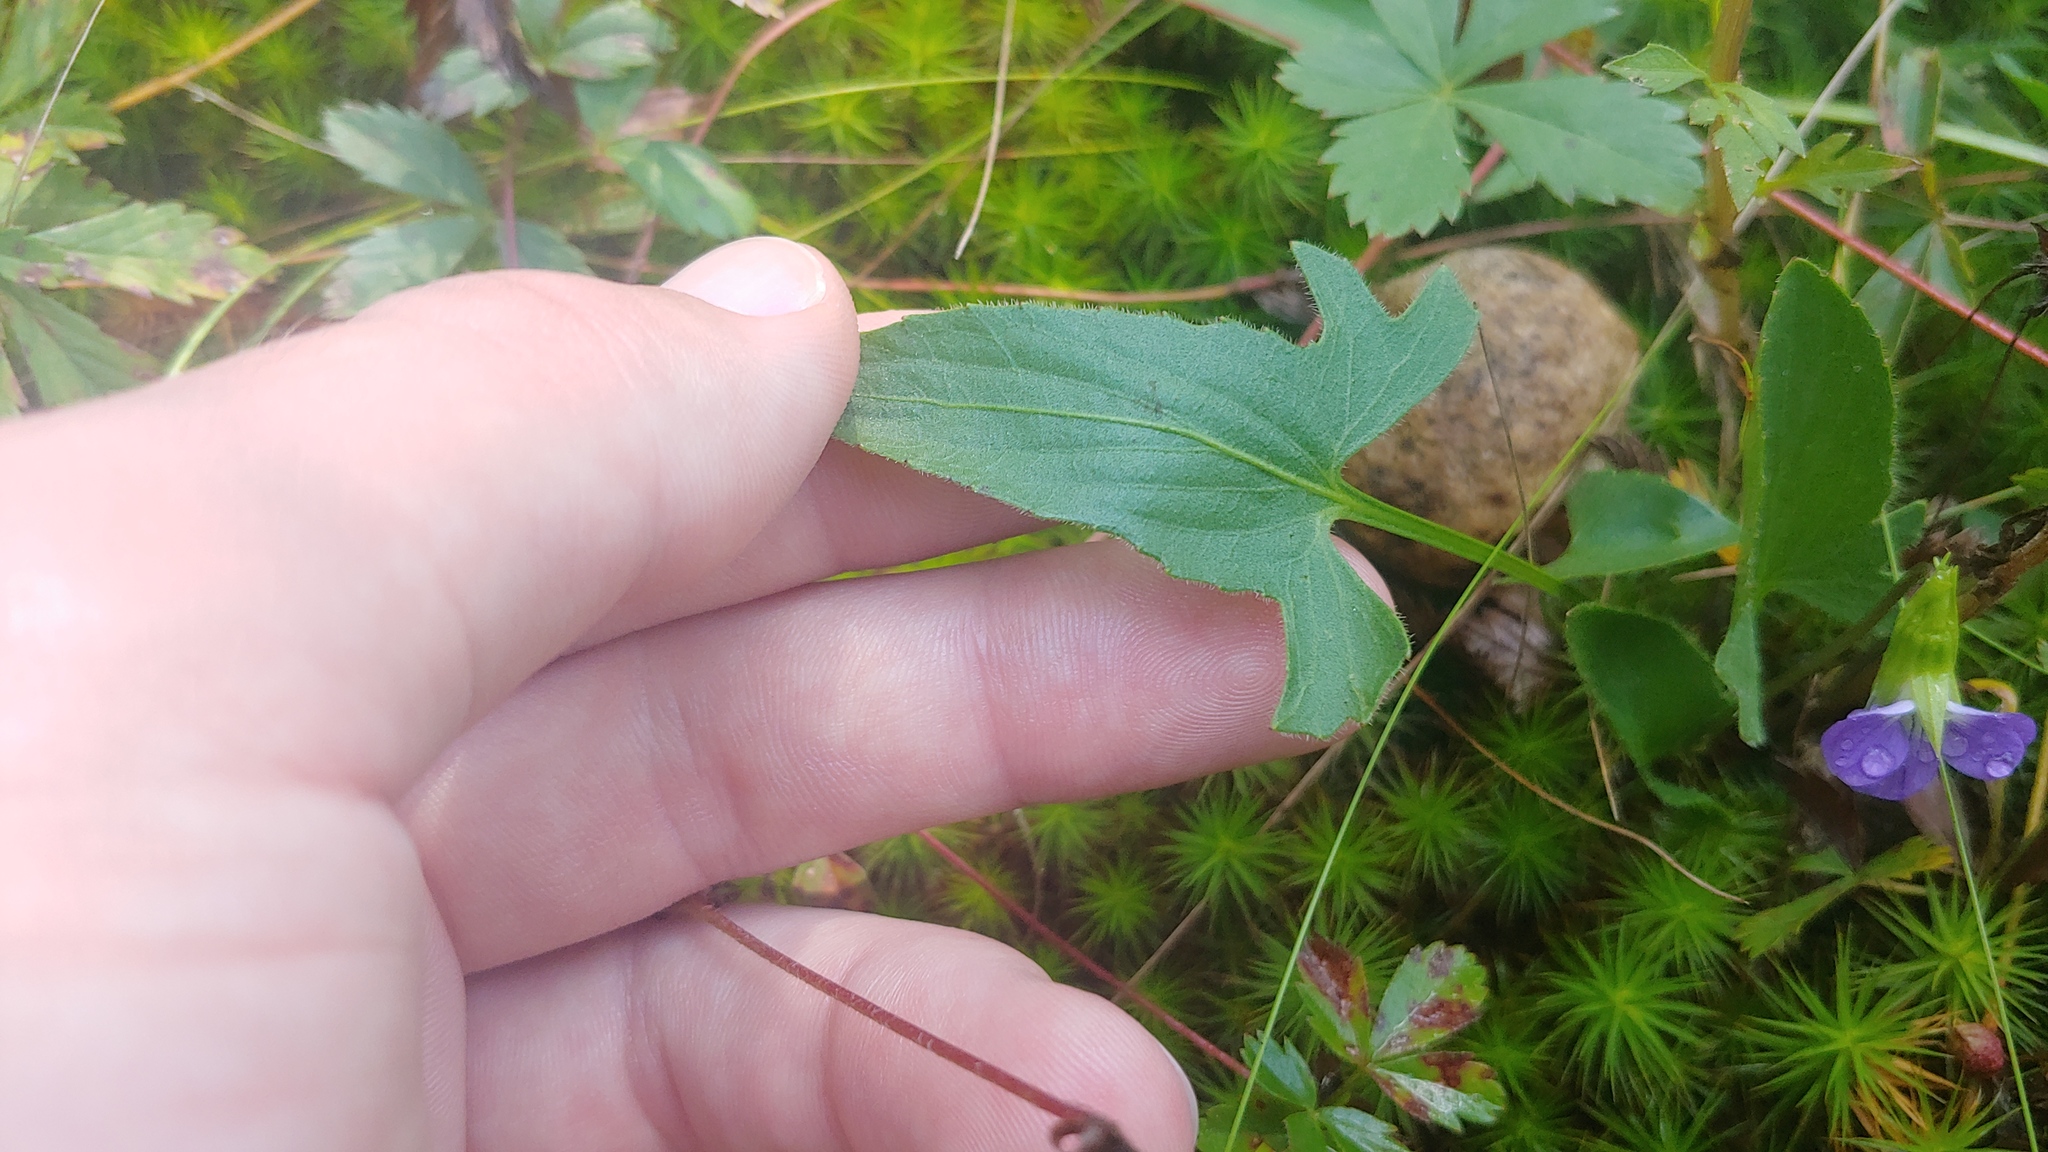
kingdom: Plantae
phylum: Tracheophyta
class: Magnoliopsida
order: Malpighiales
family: Violaceae
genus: Viola
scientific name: Viola sagittata
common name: Arrowhead violet
